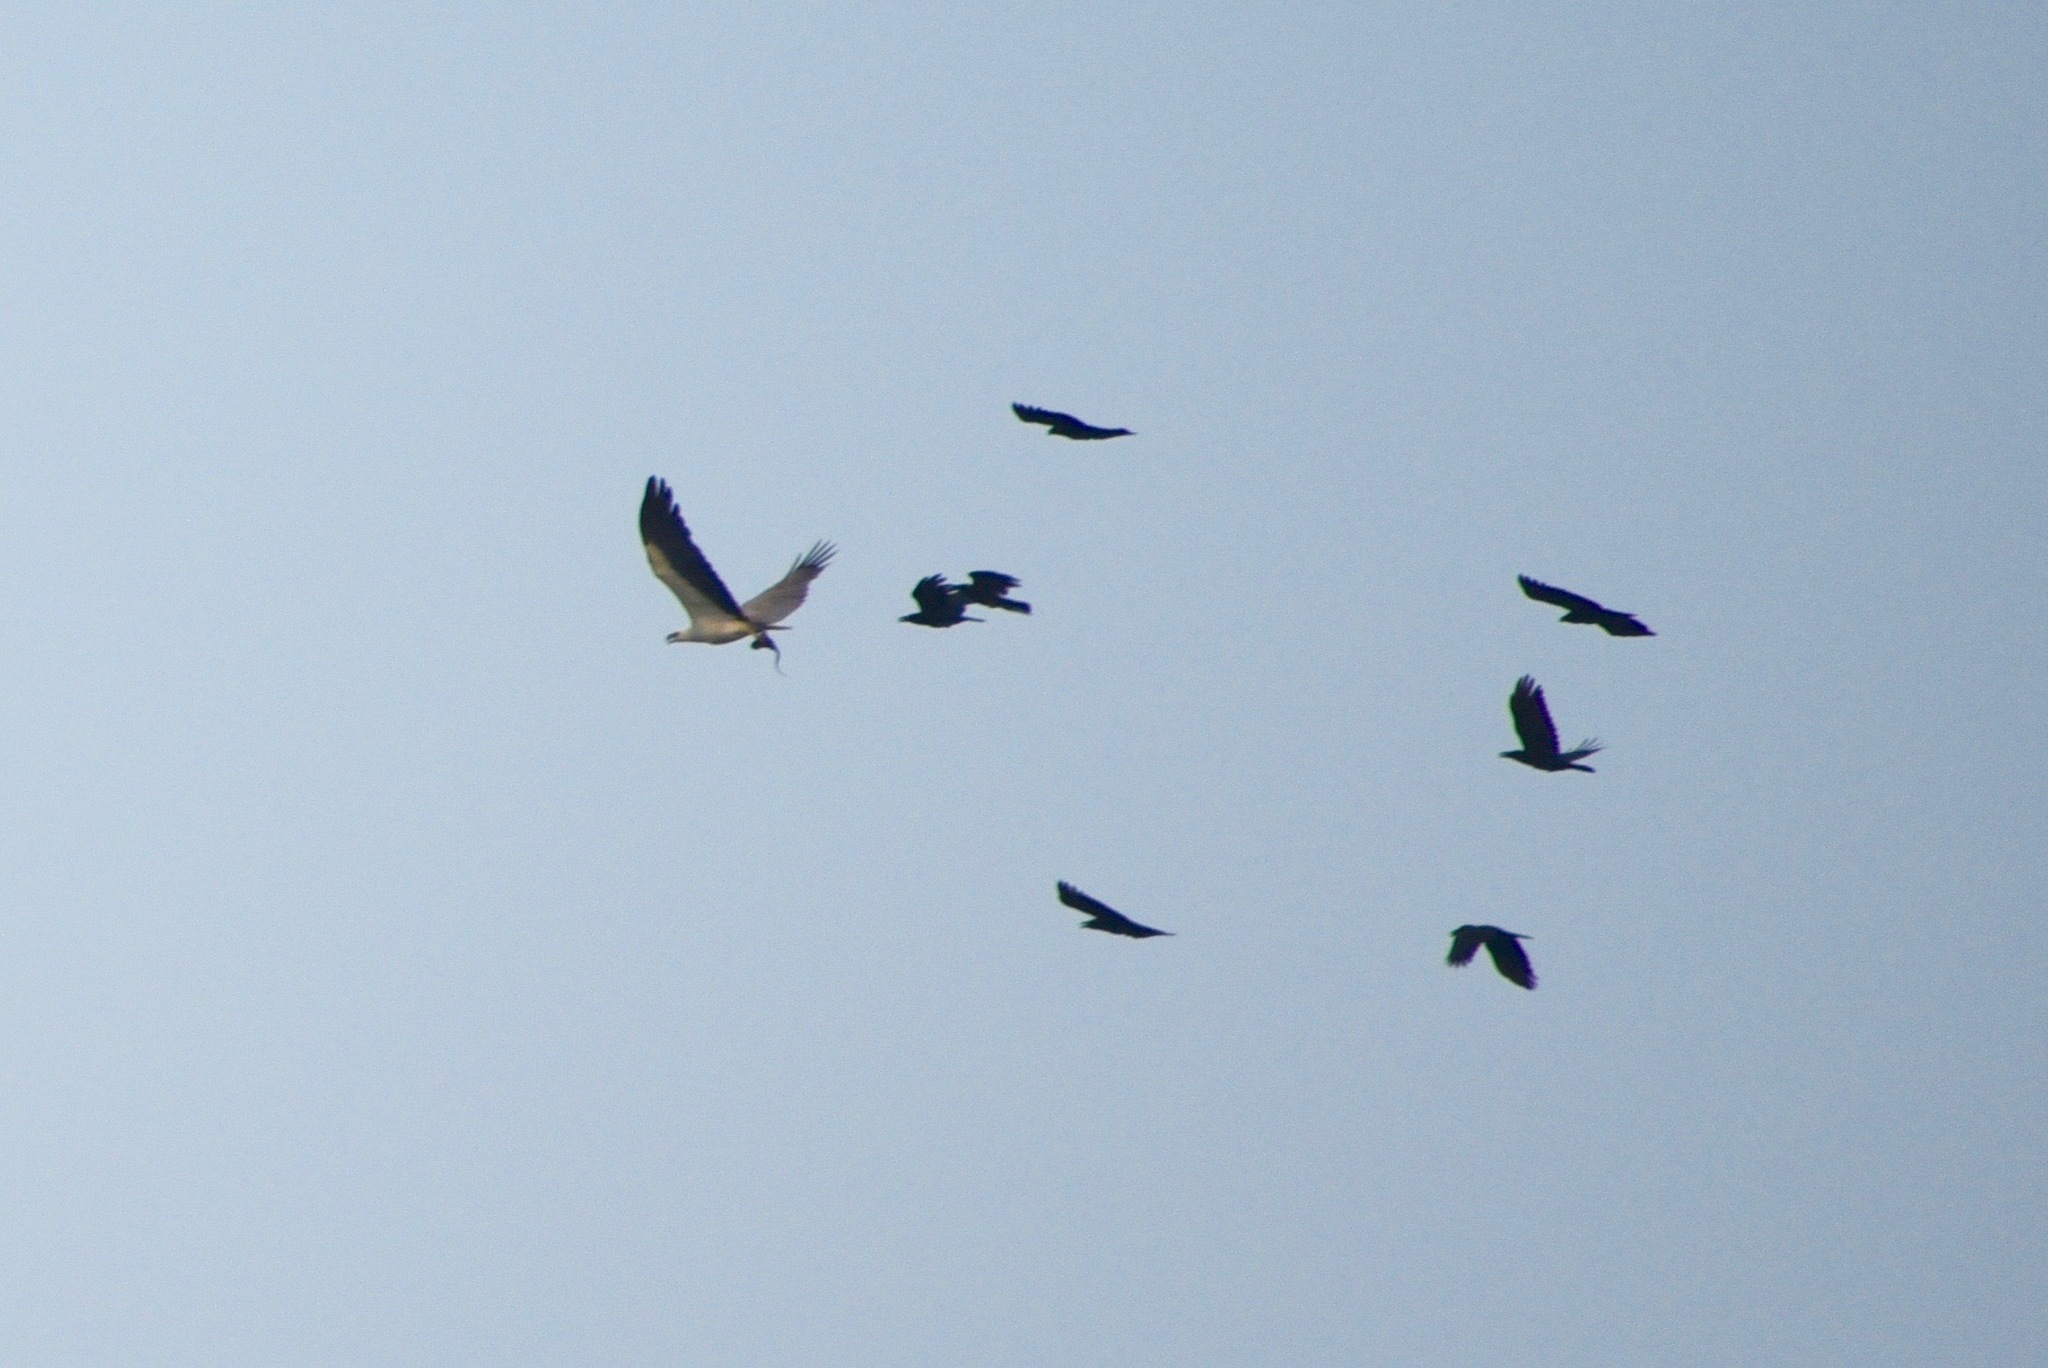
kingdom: Animalia
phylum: Chordata
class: Aves
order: Accipitriformes
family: Accipitridae
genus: Haliaeetus
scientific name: Haliaeetus leucogaster
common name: White-bellied sea eagle
